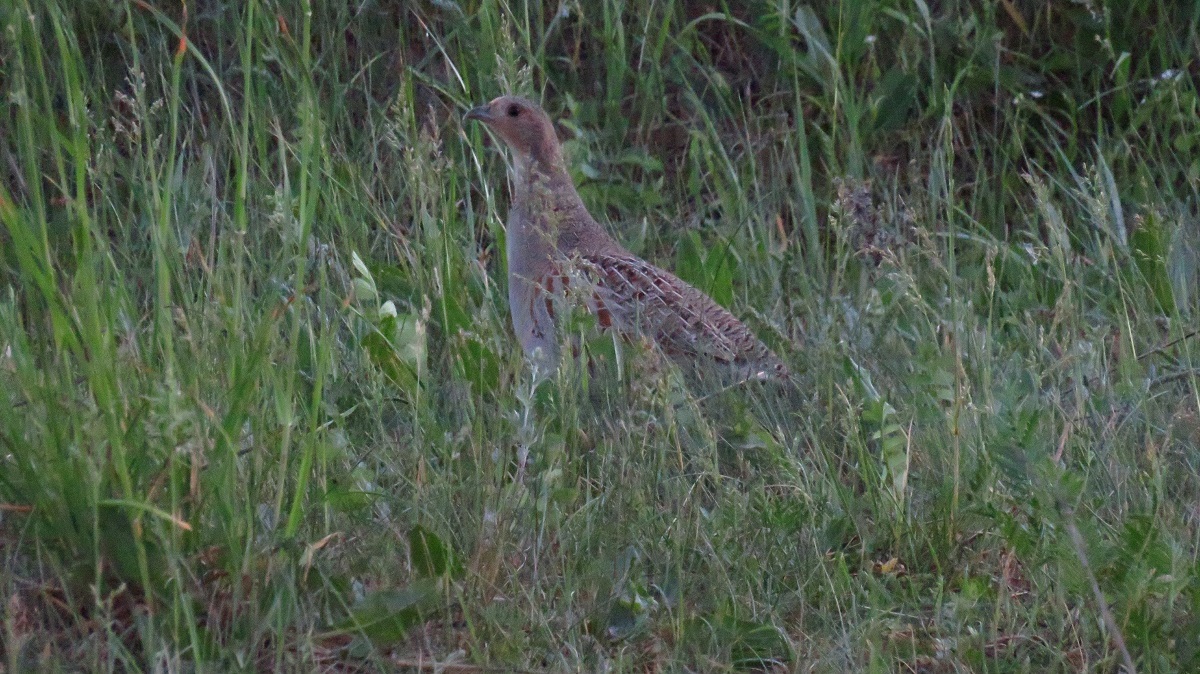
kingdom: Animalia
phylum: Chordata
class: Aves
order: Galliformes
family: Phasianidae
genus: Perdix
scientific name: Perdix perdix
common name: Grey partridge
